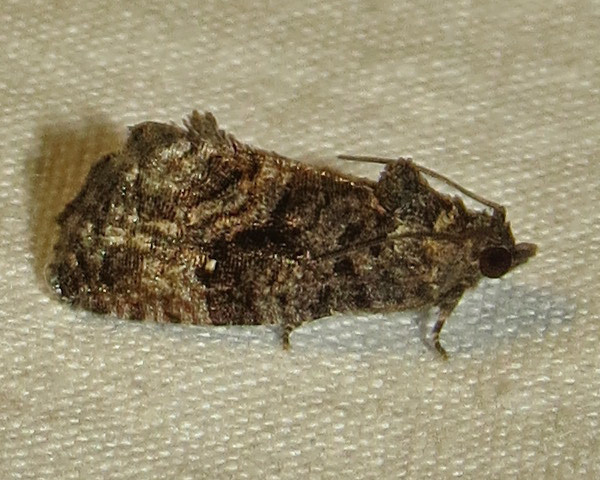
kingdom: Animalia
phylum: Arthropoda
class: Insecta
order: Lepidoptera
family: Tortricidae
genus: Gymnandrosoma
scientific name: Gymnandrosoma punctidiscanum
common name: Dotted ecdytolopha moth
